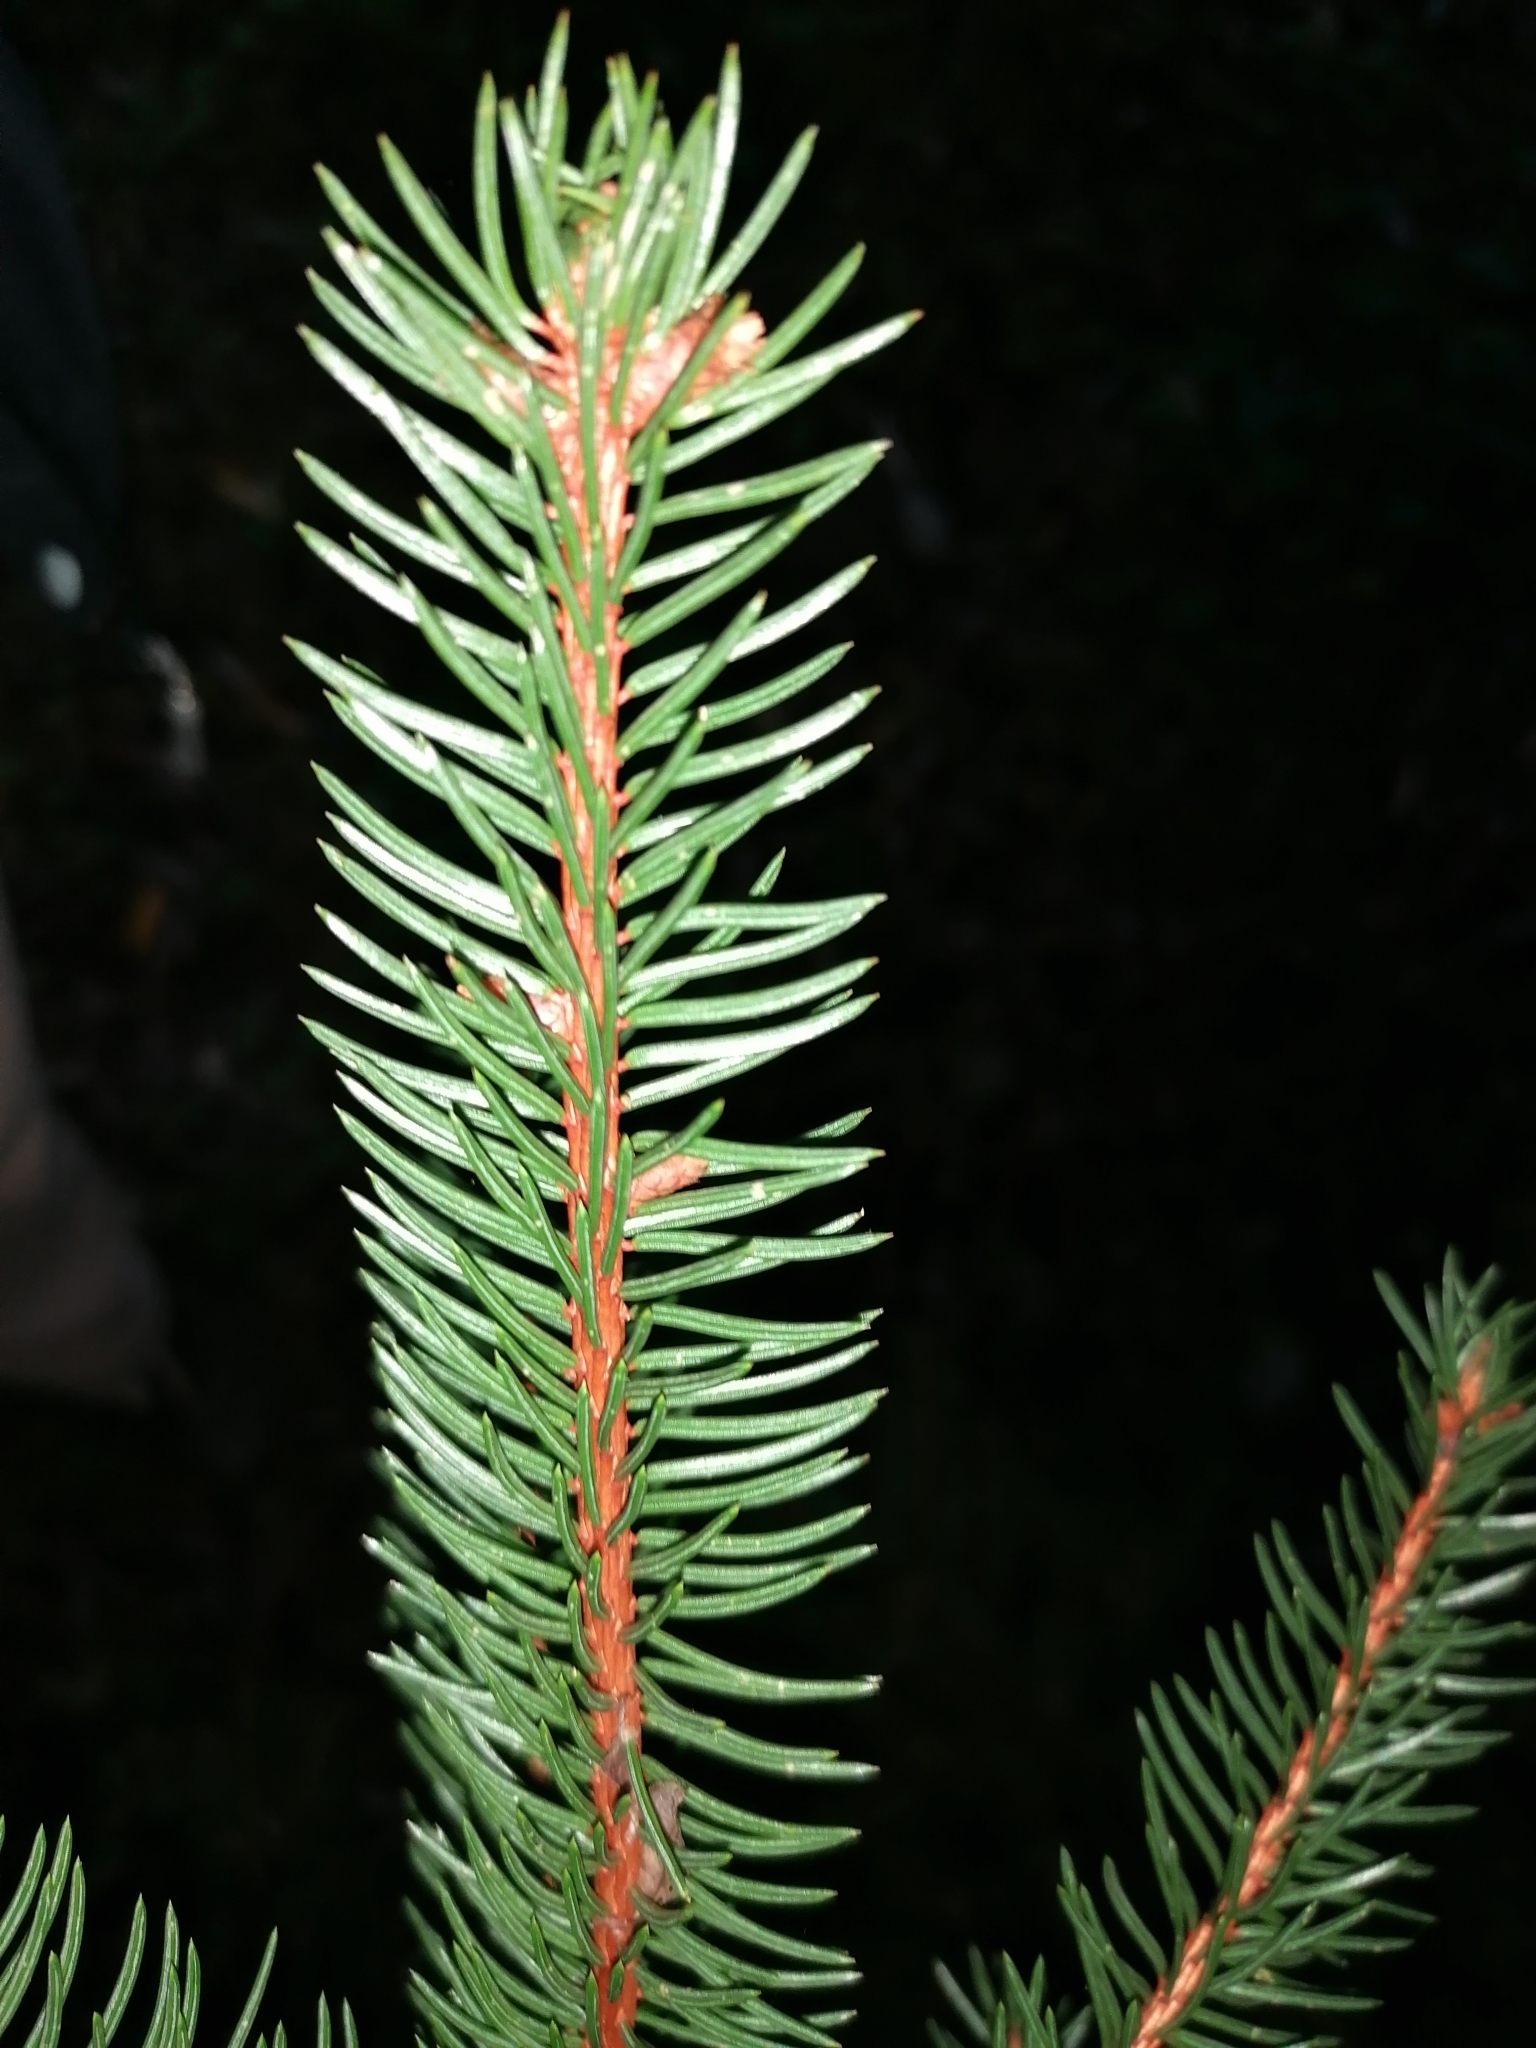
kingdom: Plantae
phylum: Tracheophyta
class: Pinopsida
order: Pinales
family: Pinaceae
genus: Picea
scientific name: Picea abies
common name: Norway spruce
